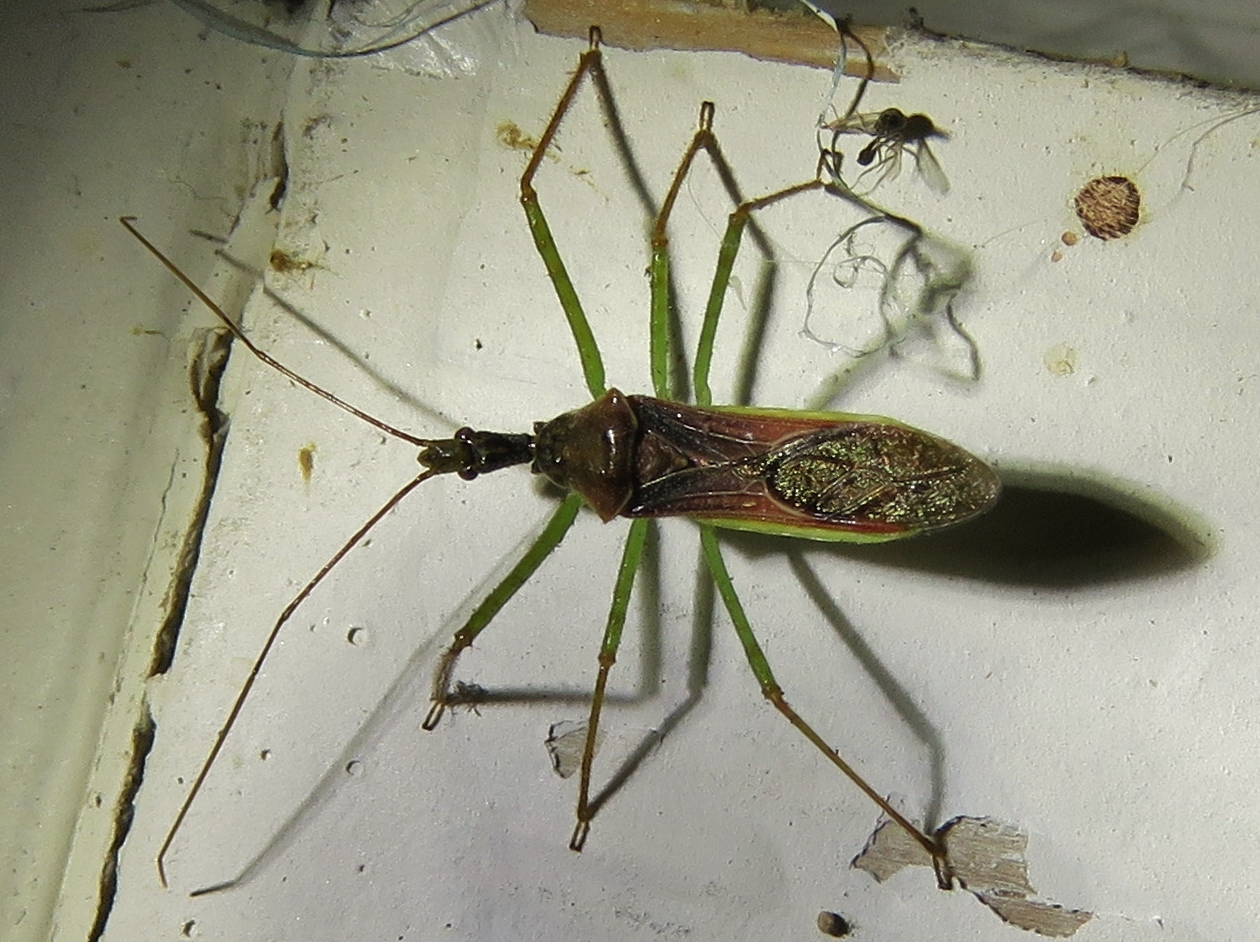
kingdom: Animalia
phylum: Arthropoda
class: Insecta
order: Hemiptera
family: Reduviidae
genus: Zelus
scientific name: Zelus renardii
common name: Assassin bug
